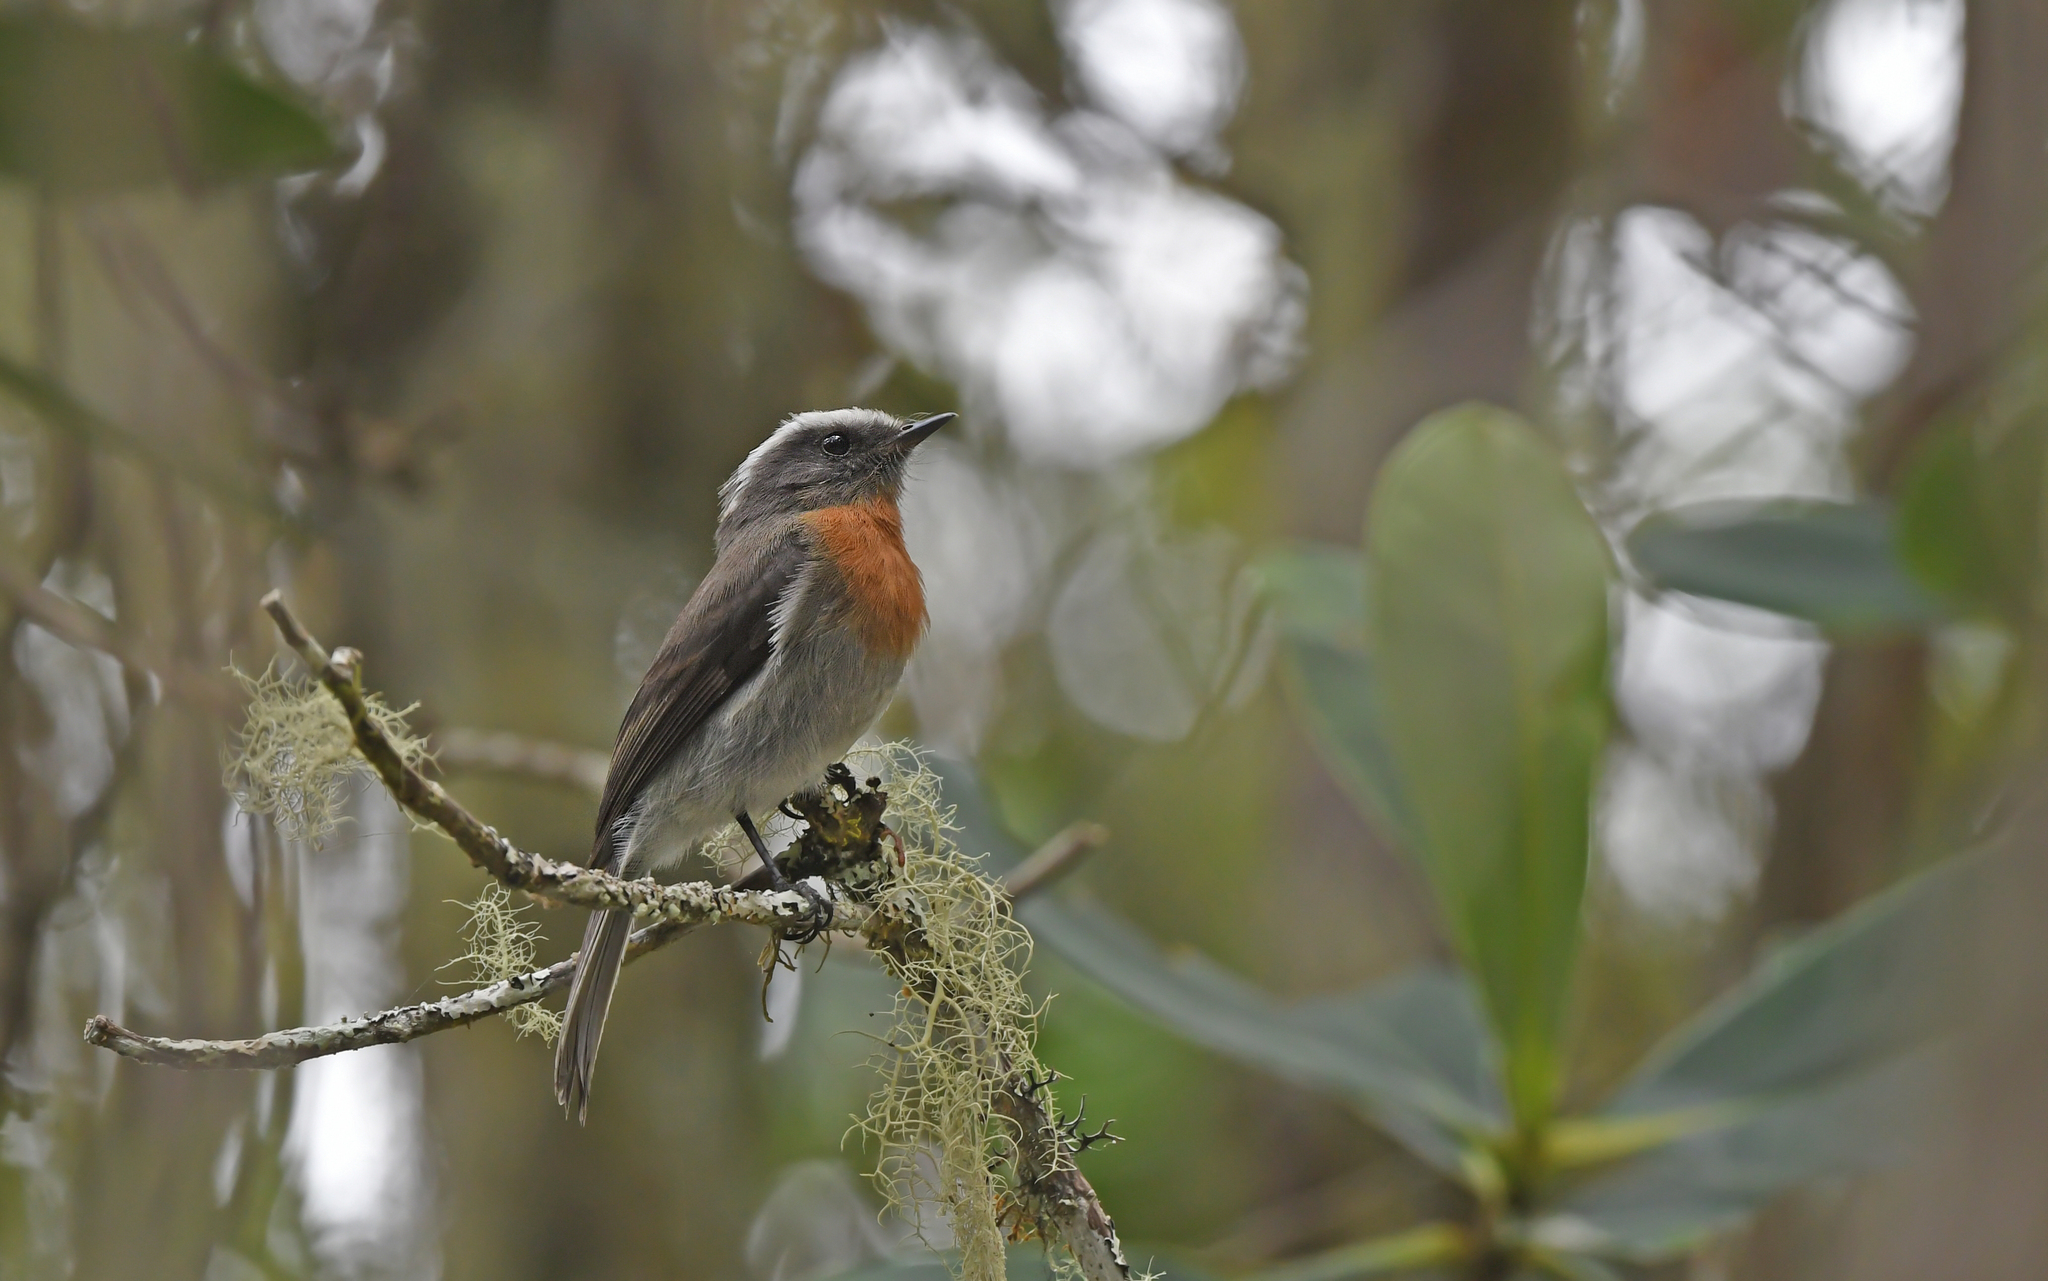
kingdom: Animalia
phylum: Chordata
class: Aves
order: Passeriformes
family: Tyrannidae
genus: Ochthoeca
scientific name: Ochthoeca rufipectoralis
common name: Rufous-breasted chat-tyrant
